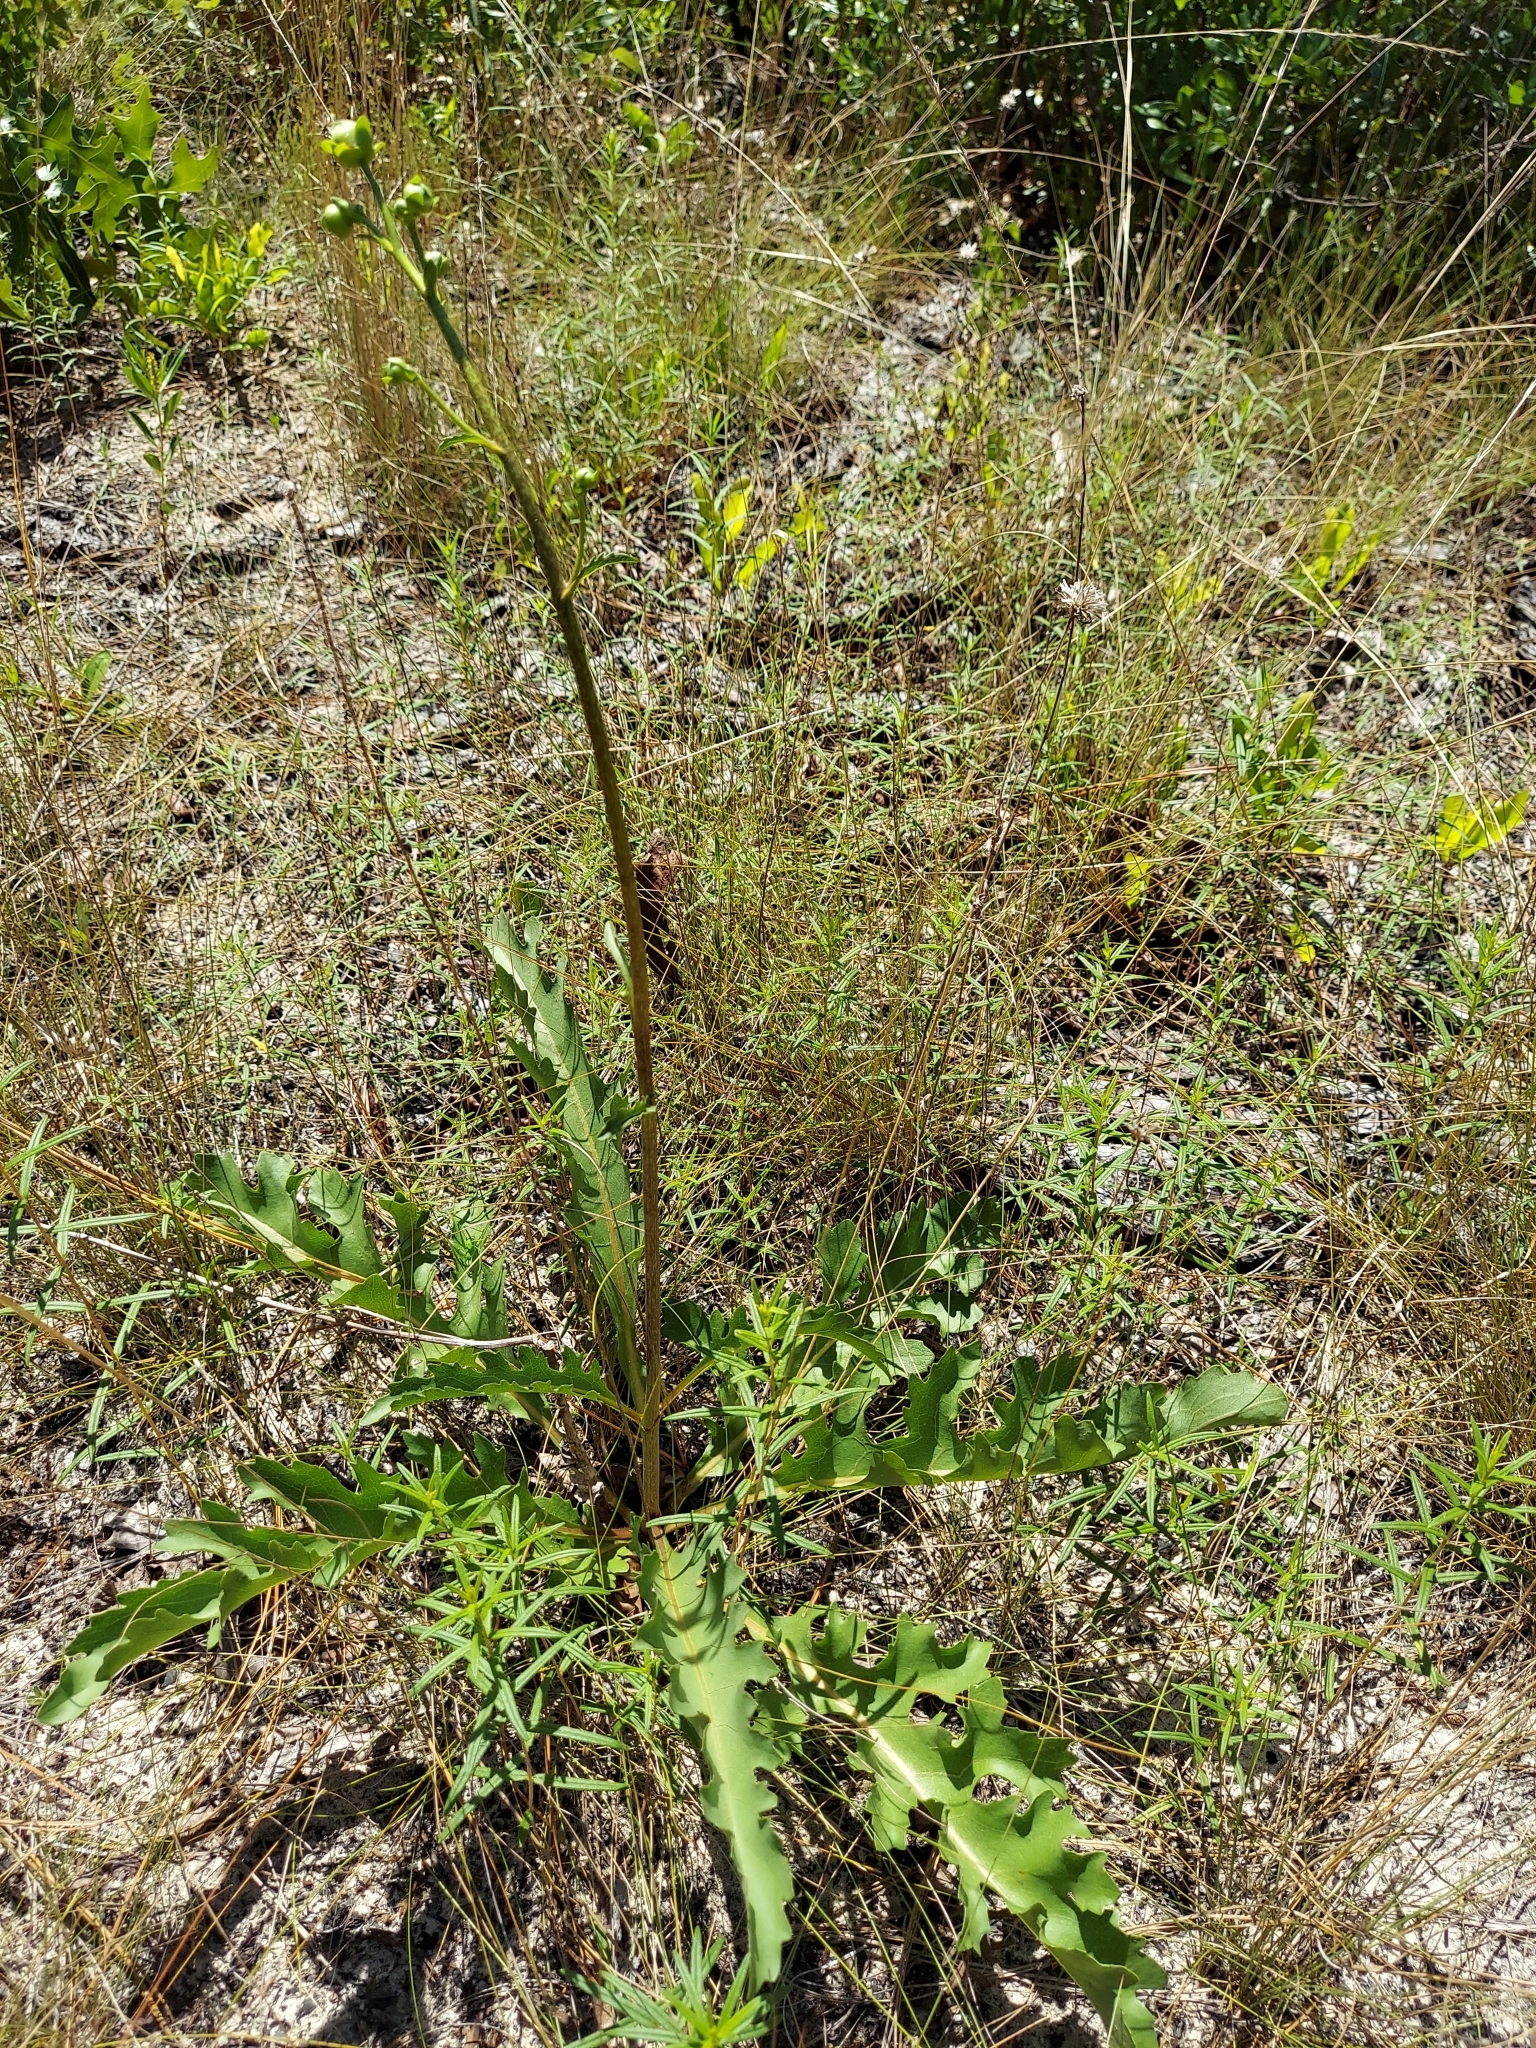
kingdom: Plantae
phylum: Tracheophyta
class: Magnoliopsida
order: Asterales
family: Asteraceae
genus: Silphium
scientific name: Silphium compositum
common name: Lesser basal-leaf rosinweed
